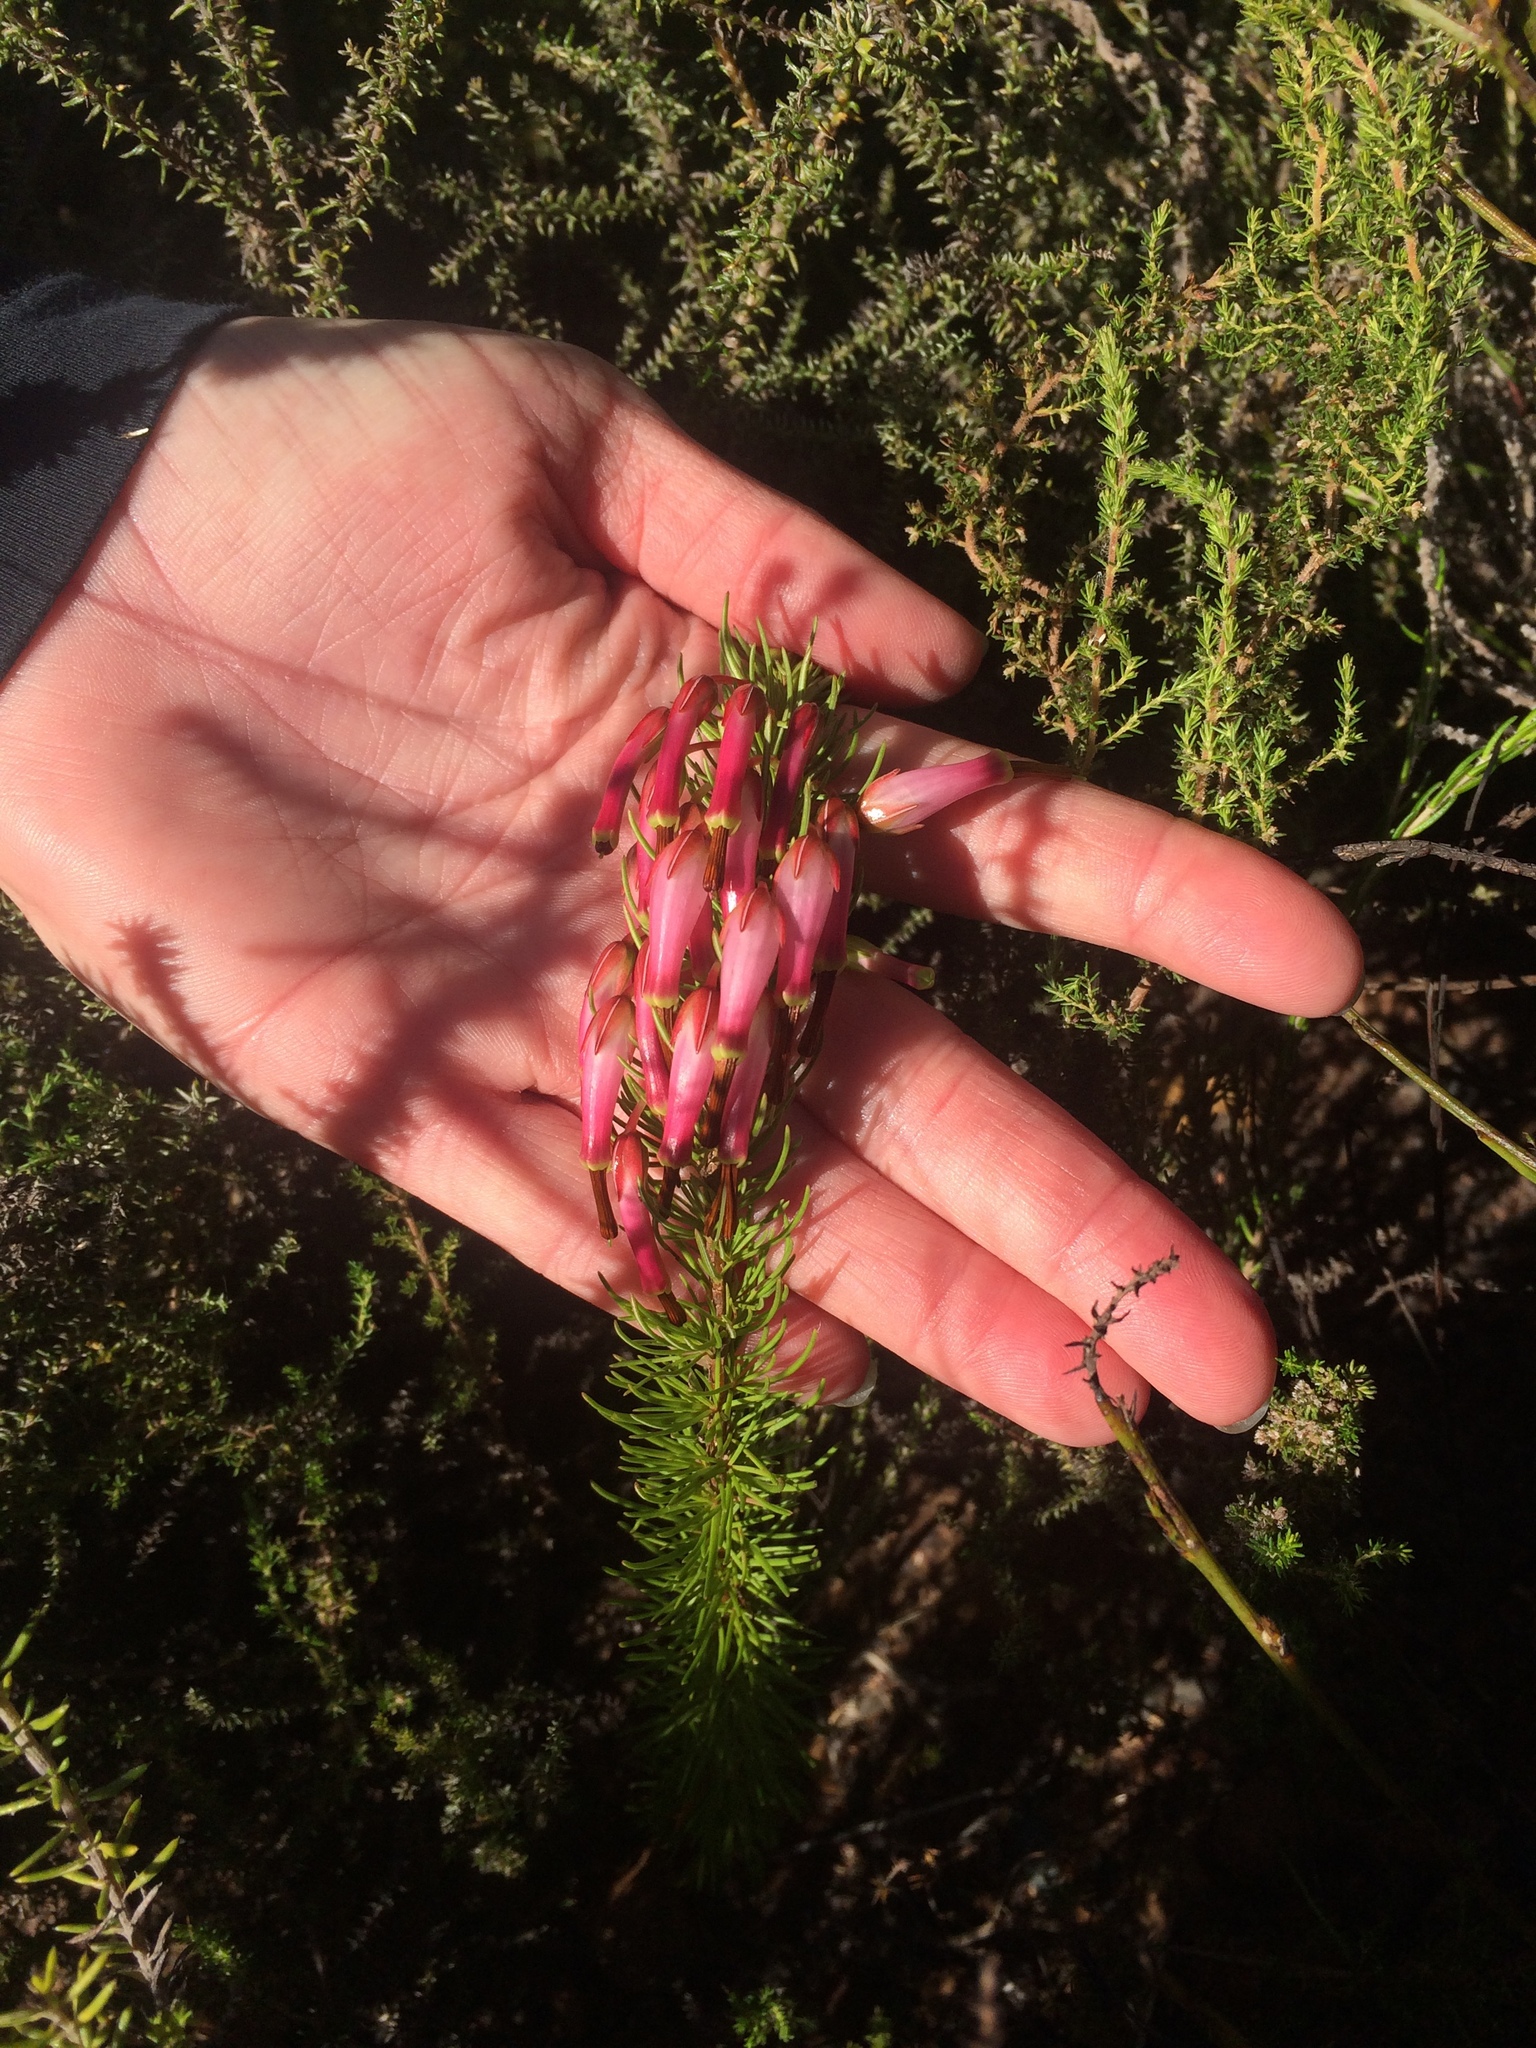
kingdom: Plantae
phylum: Tracheophyta
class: Magnoliopsida
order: Ericales
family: Ericaceae
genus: Erica
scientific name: Erica plukenetii
